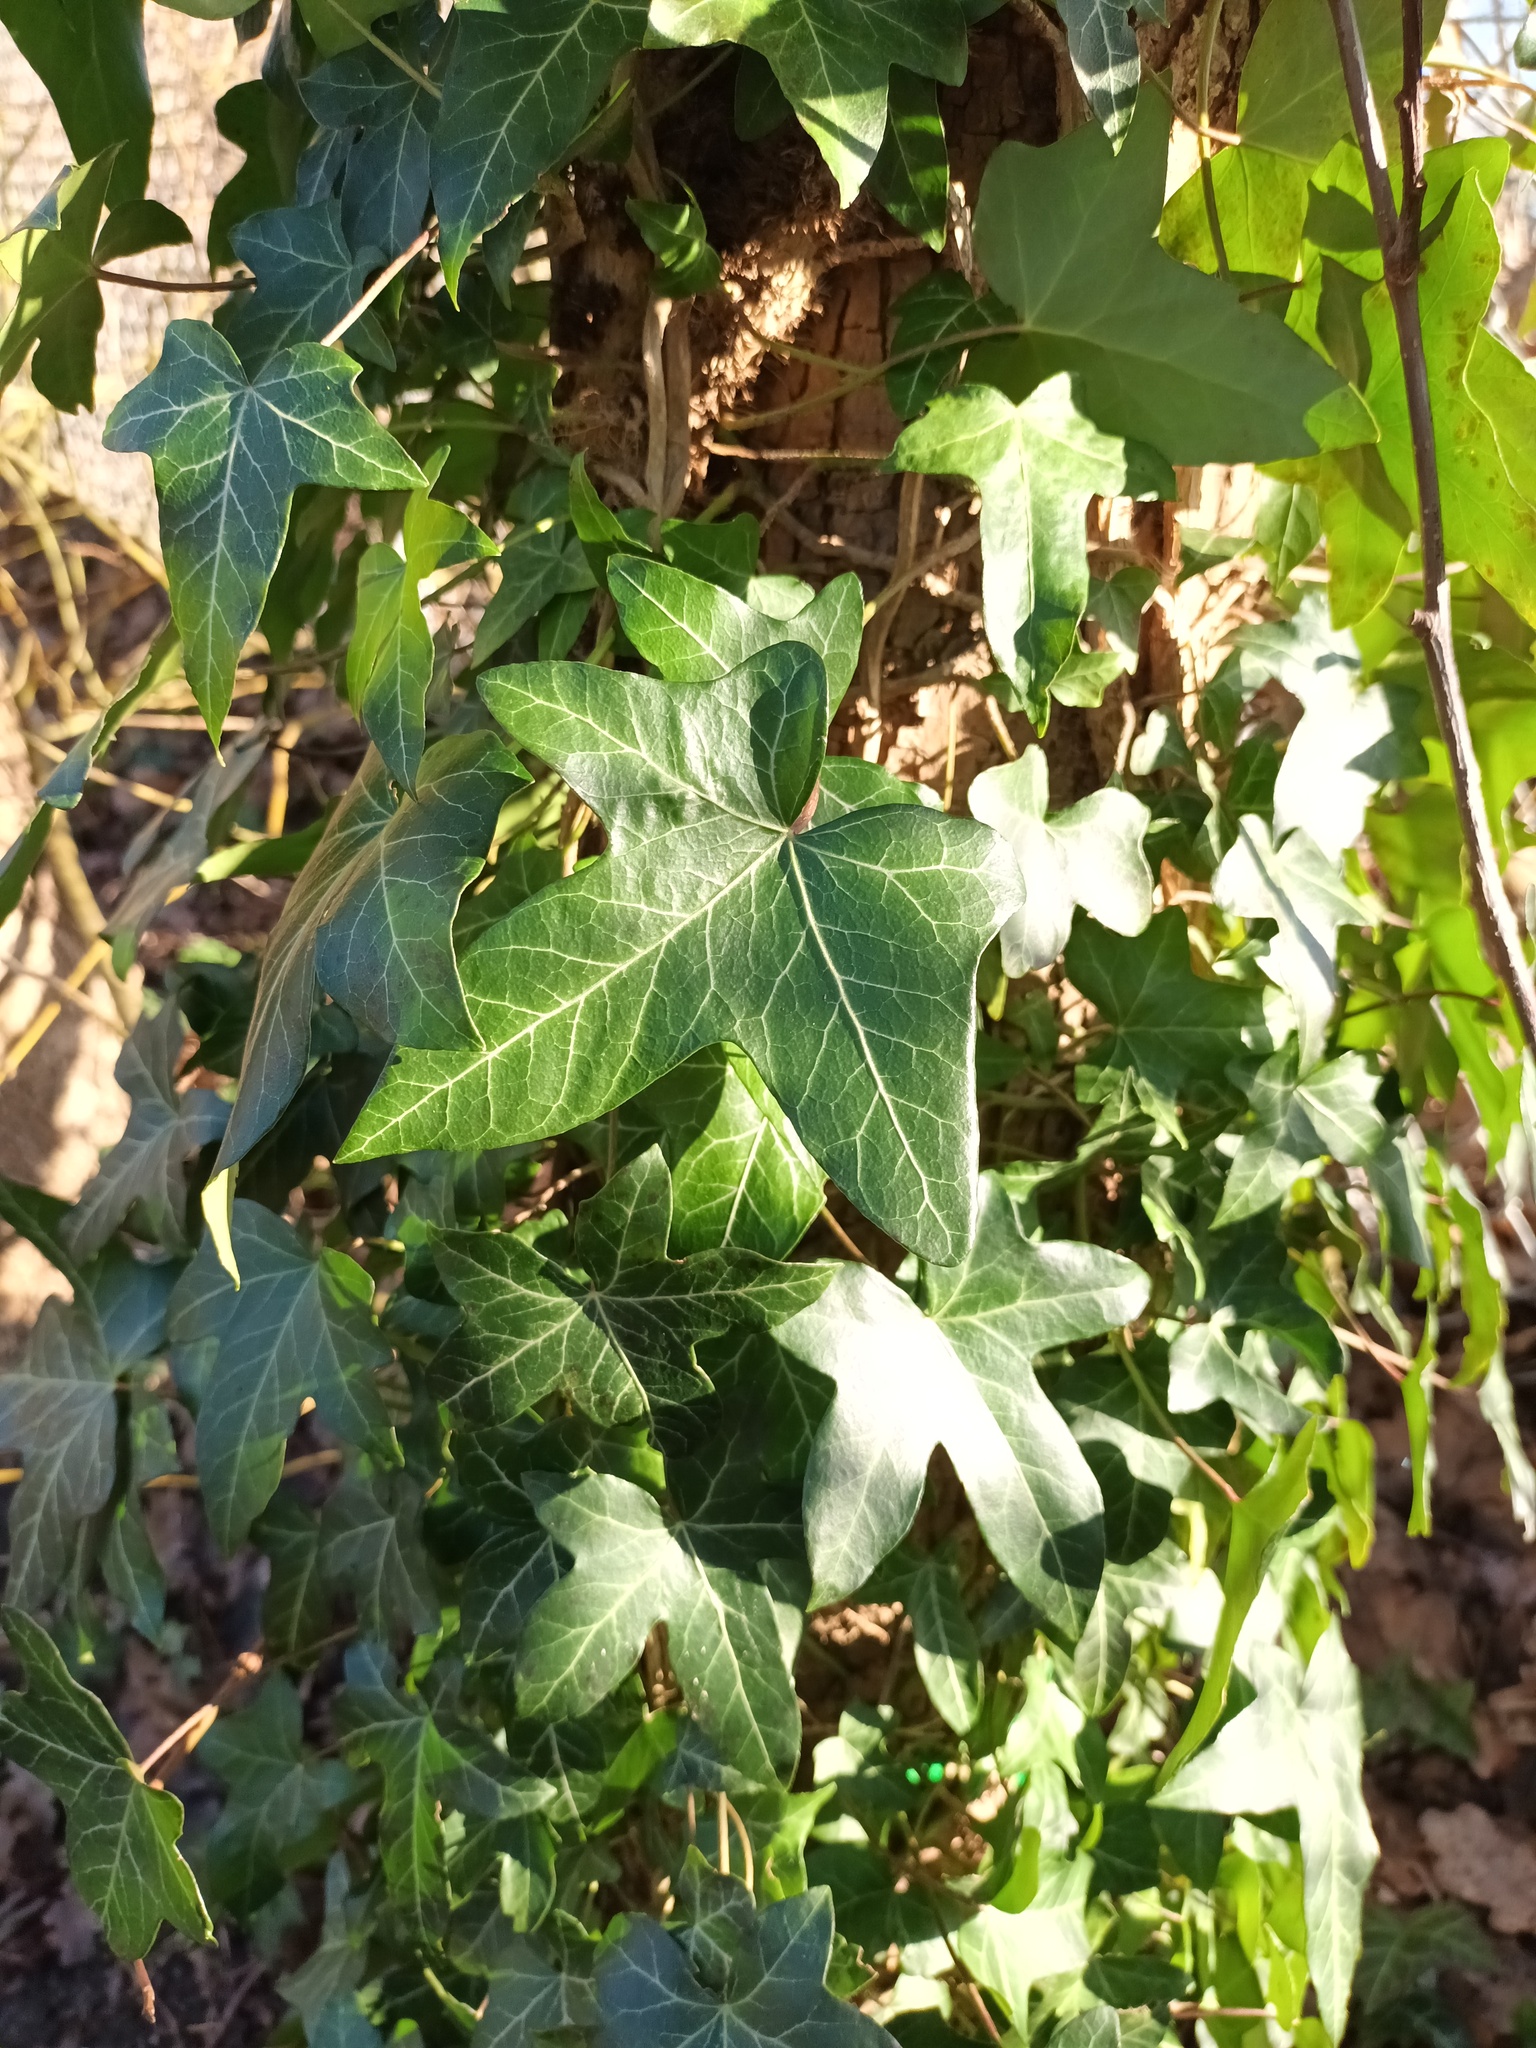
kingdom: Plantae
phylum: Tracheophyta
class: Magnoliopsida
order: Apiales
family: Araliaceae
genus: Hedera
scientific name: Hedera helix
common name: Ivy
